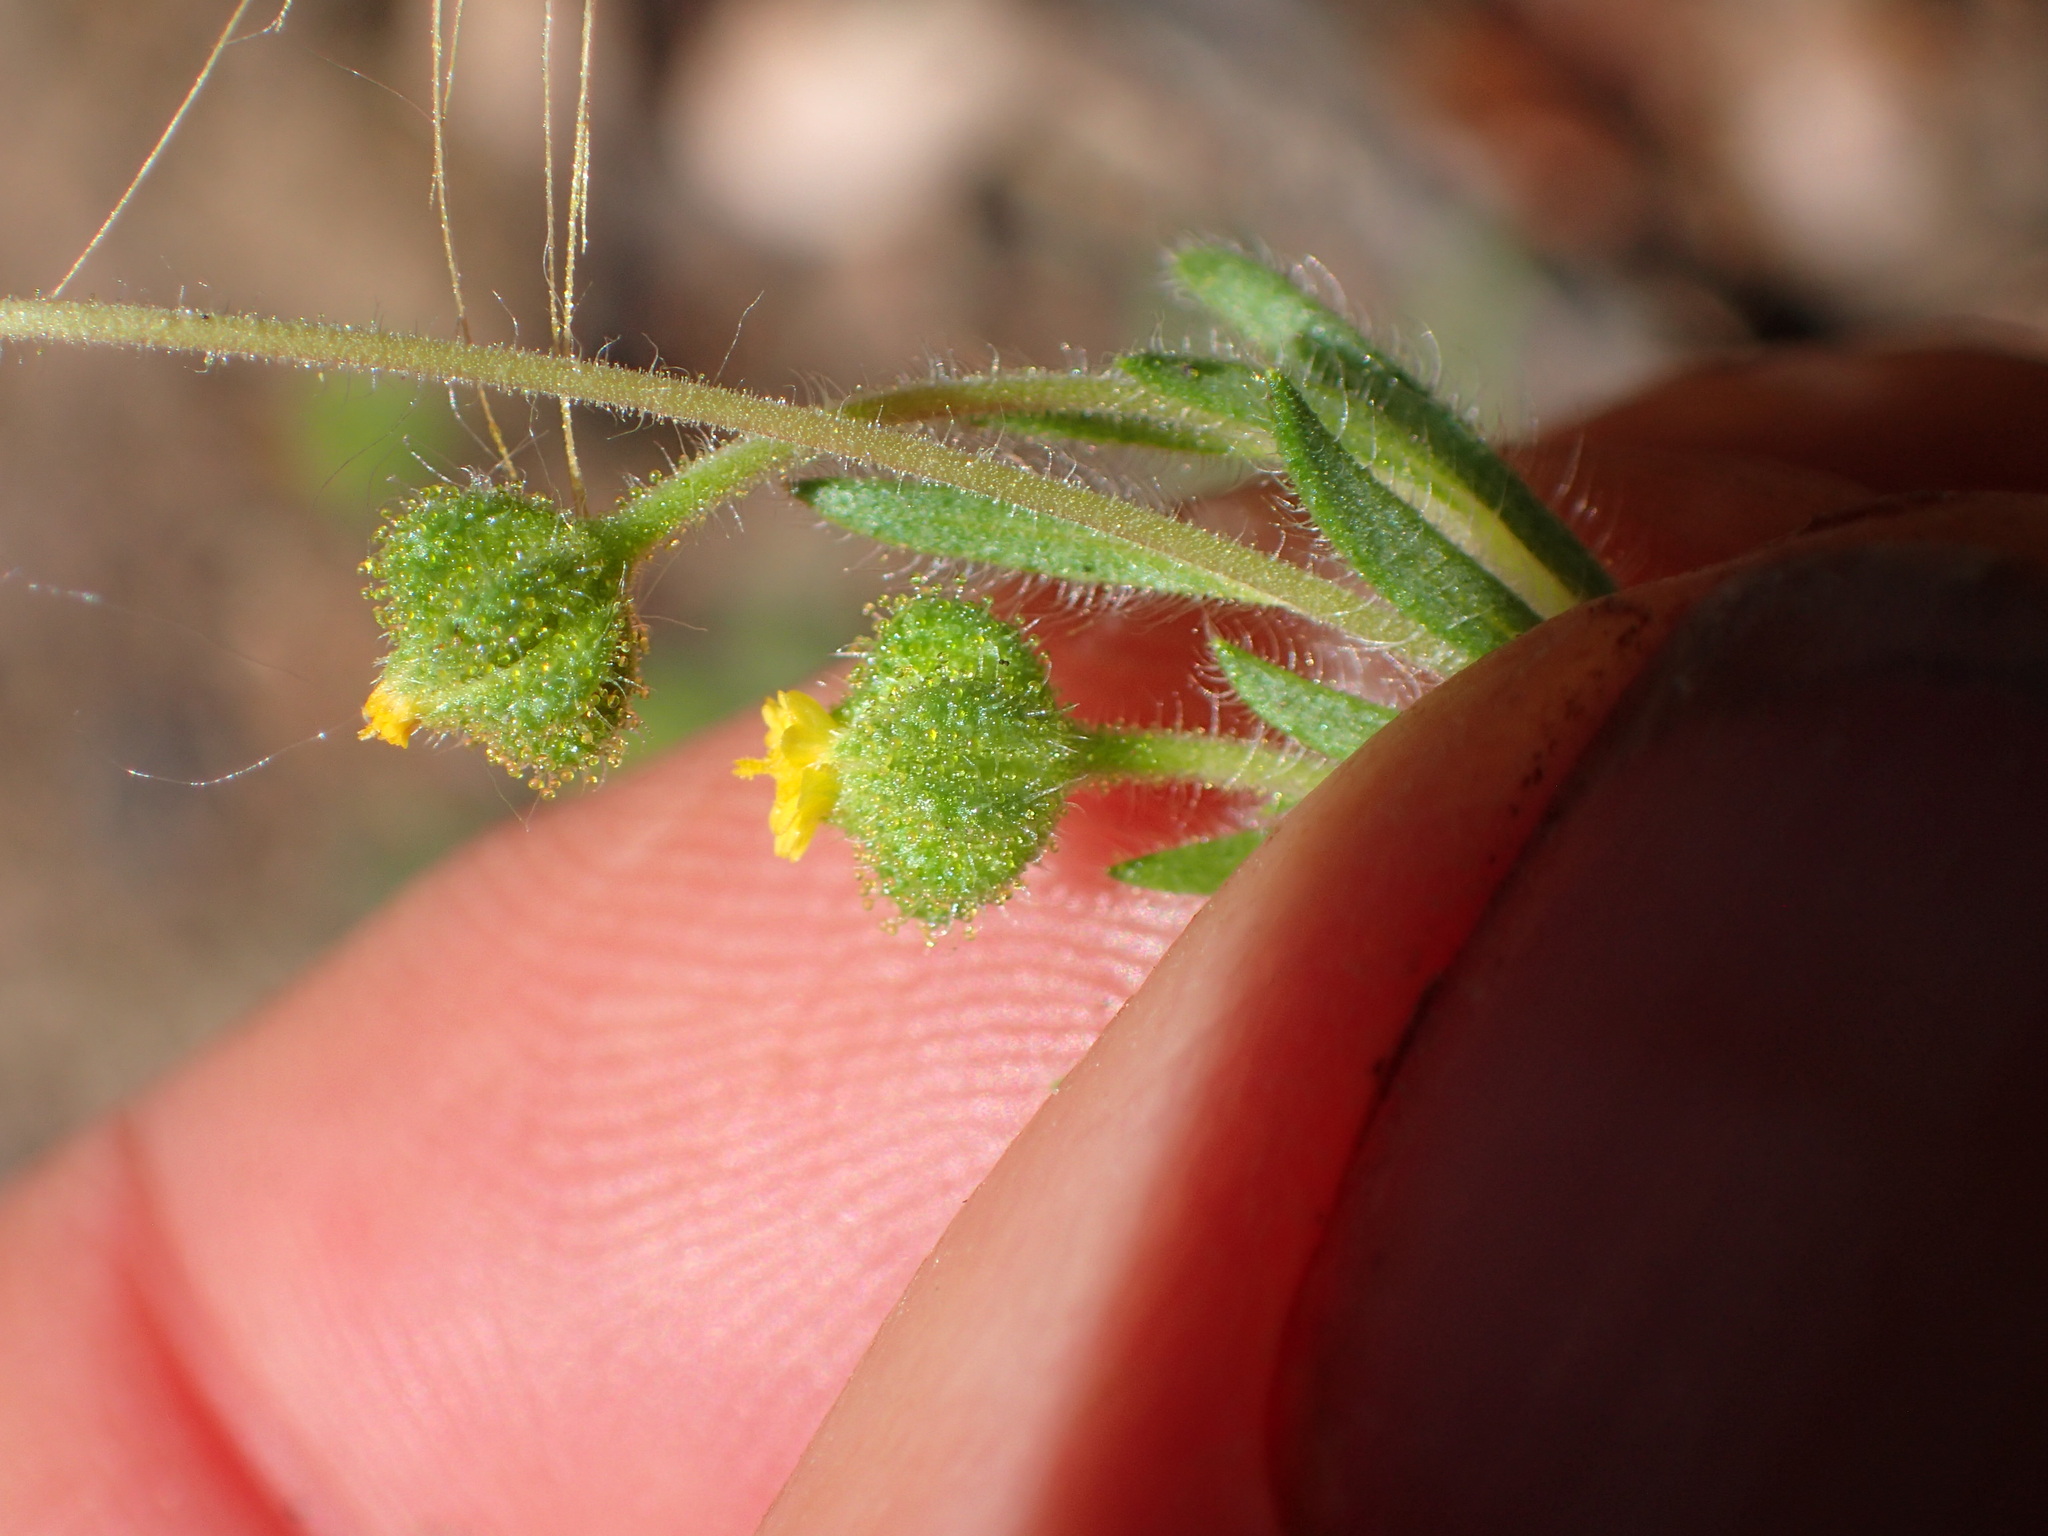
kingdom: Plantae
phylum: Tracheophyta
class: Magnoliopsida
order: Asterales
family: Asteraceae
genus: Madia
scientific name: Madia exigua
